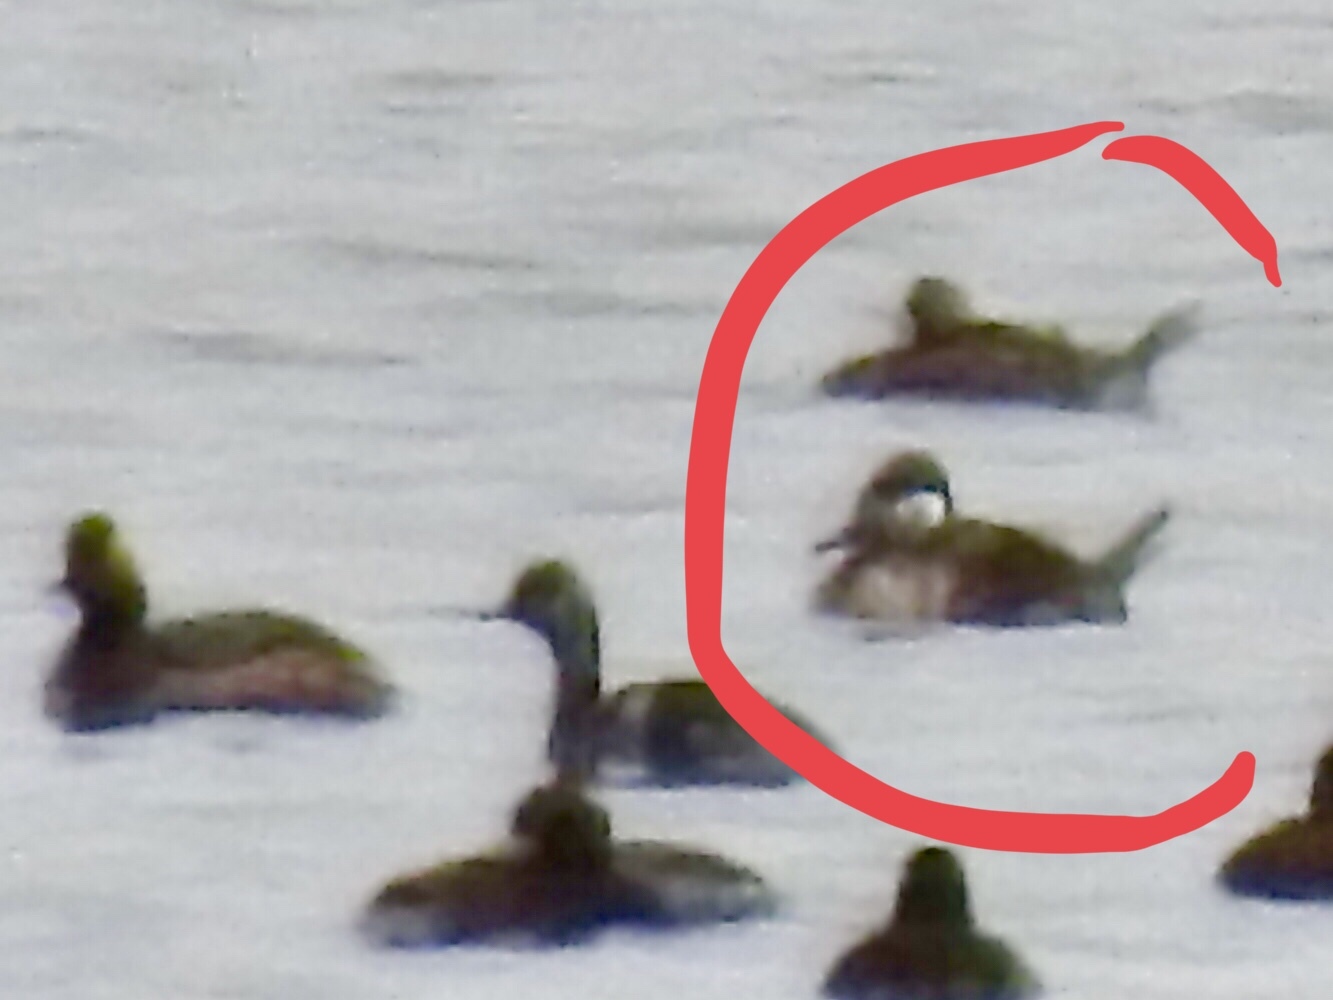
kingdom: Animalia
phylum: Chordata
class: Aves
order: Anseriformes
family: Anatidae
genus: Oxyura
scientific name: Oxyura jamaicensis
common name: Ruddy duck
